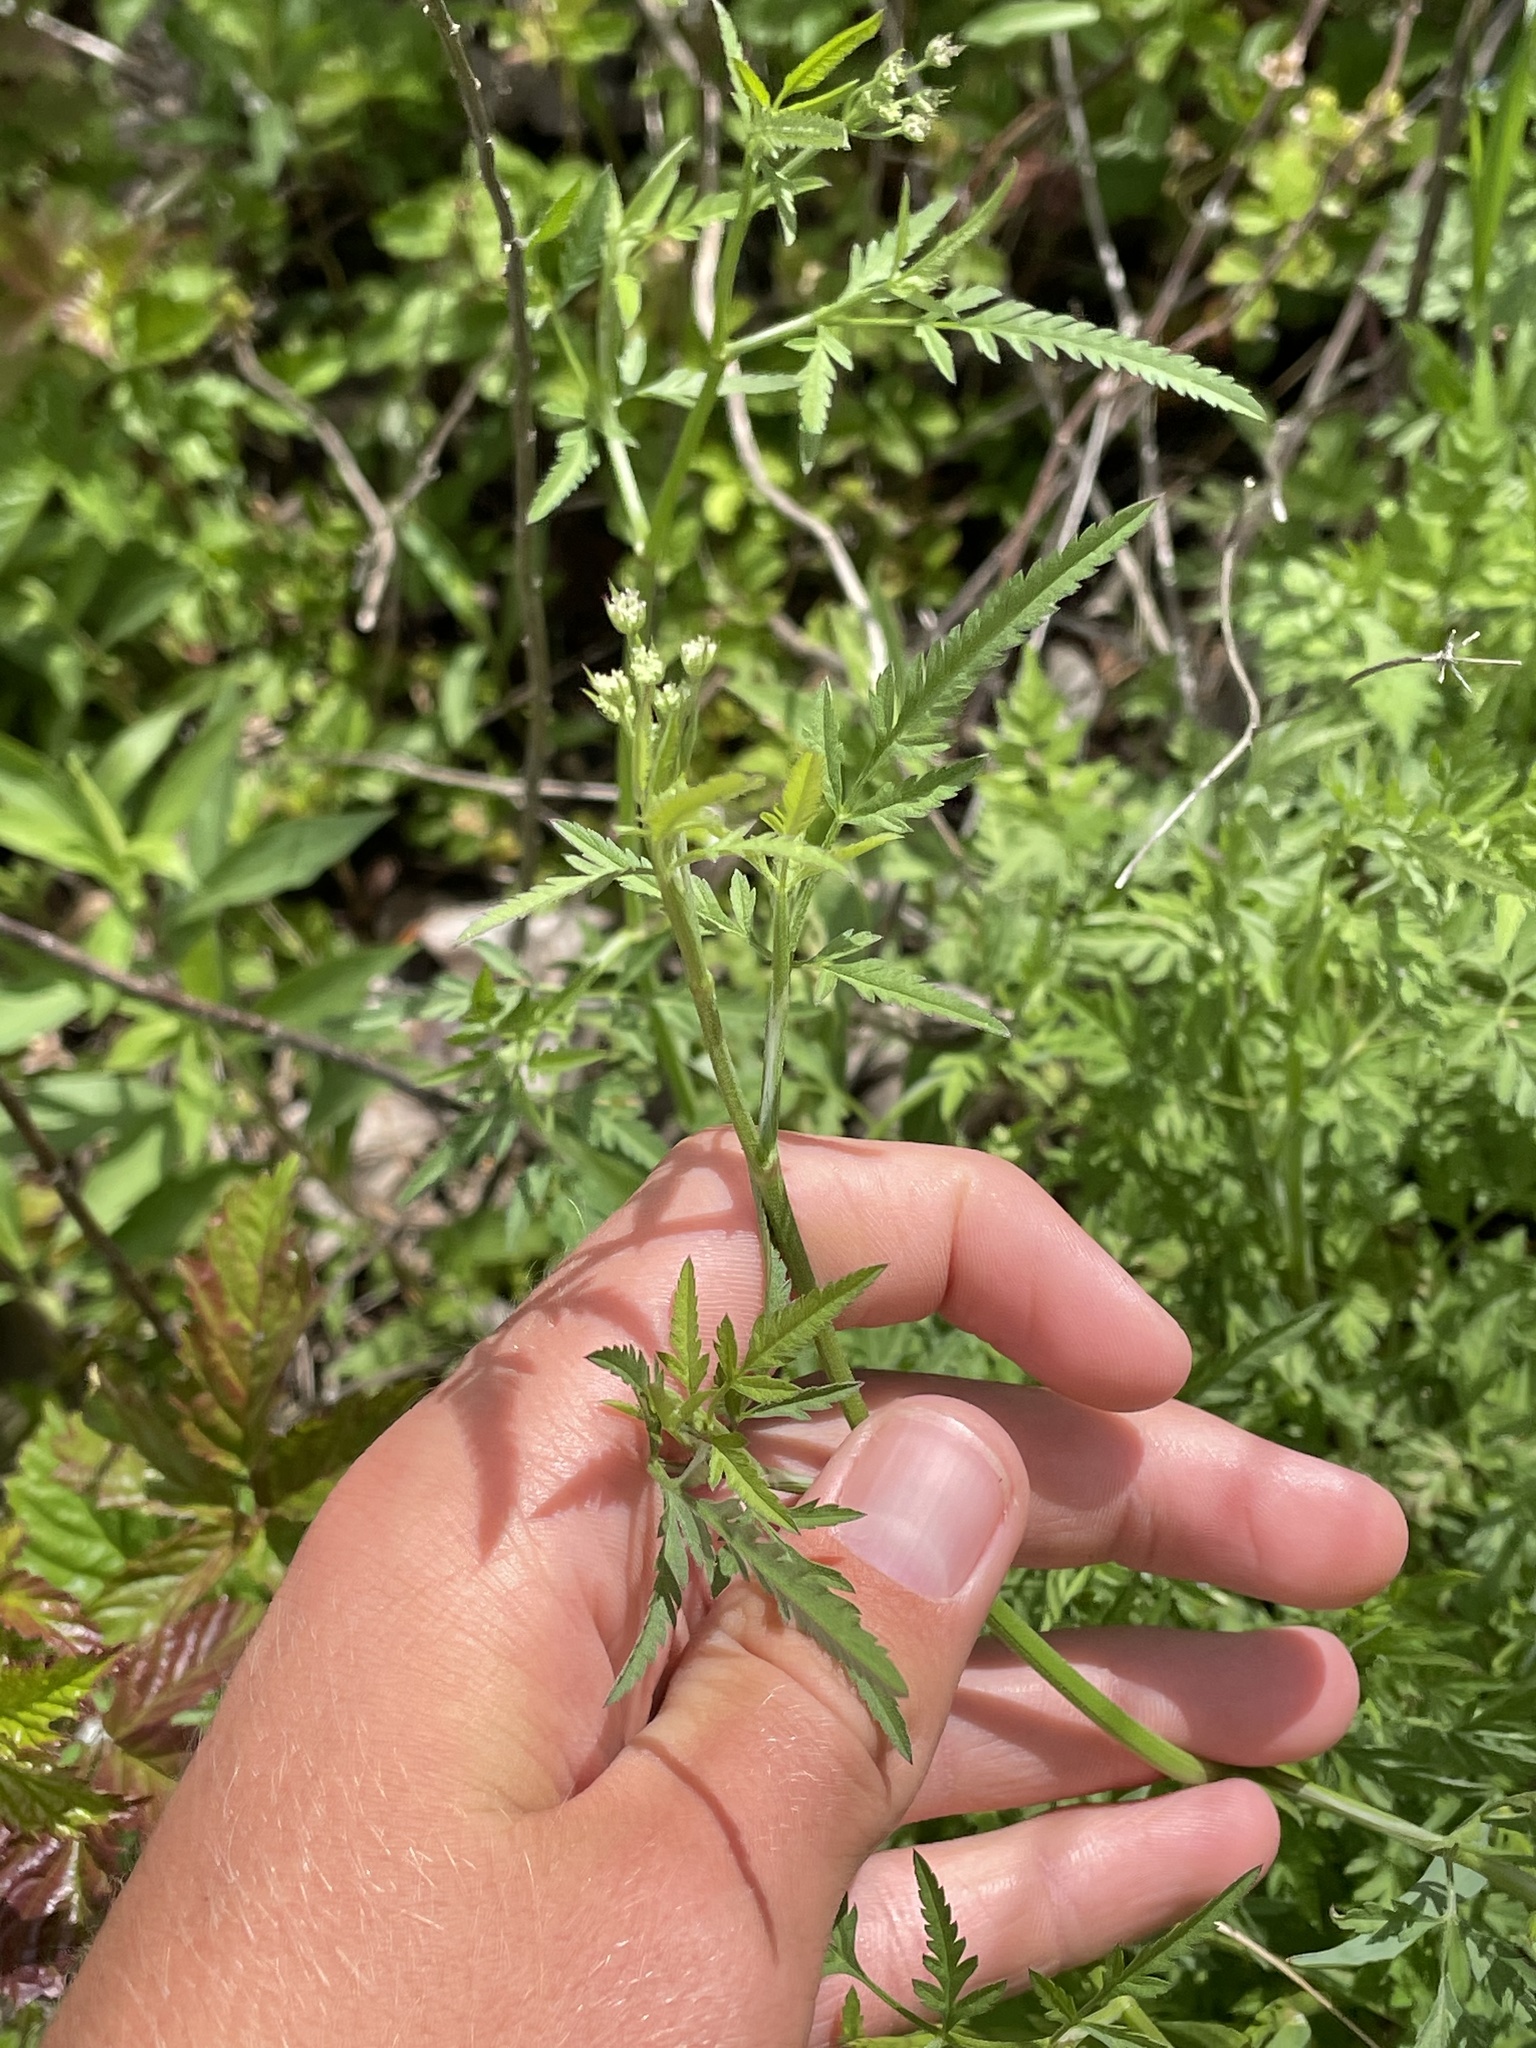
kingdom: Plantae
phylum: Tracheophyta
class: Magnoliopsida
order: Apiales
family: Apiaceae
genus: Torilis
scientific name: Torilis arvensis
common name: Spreading hedge-parsley
